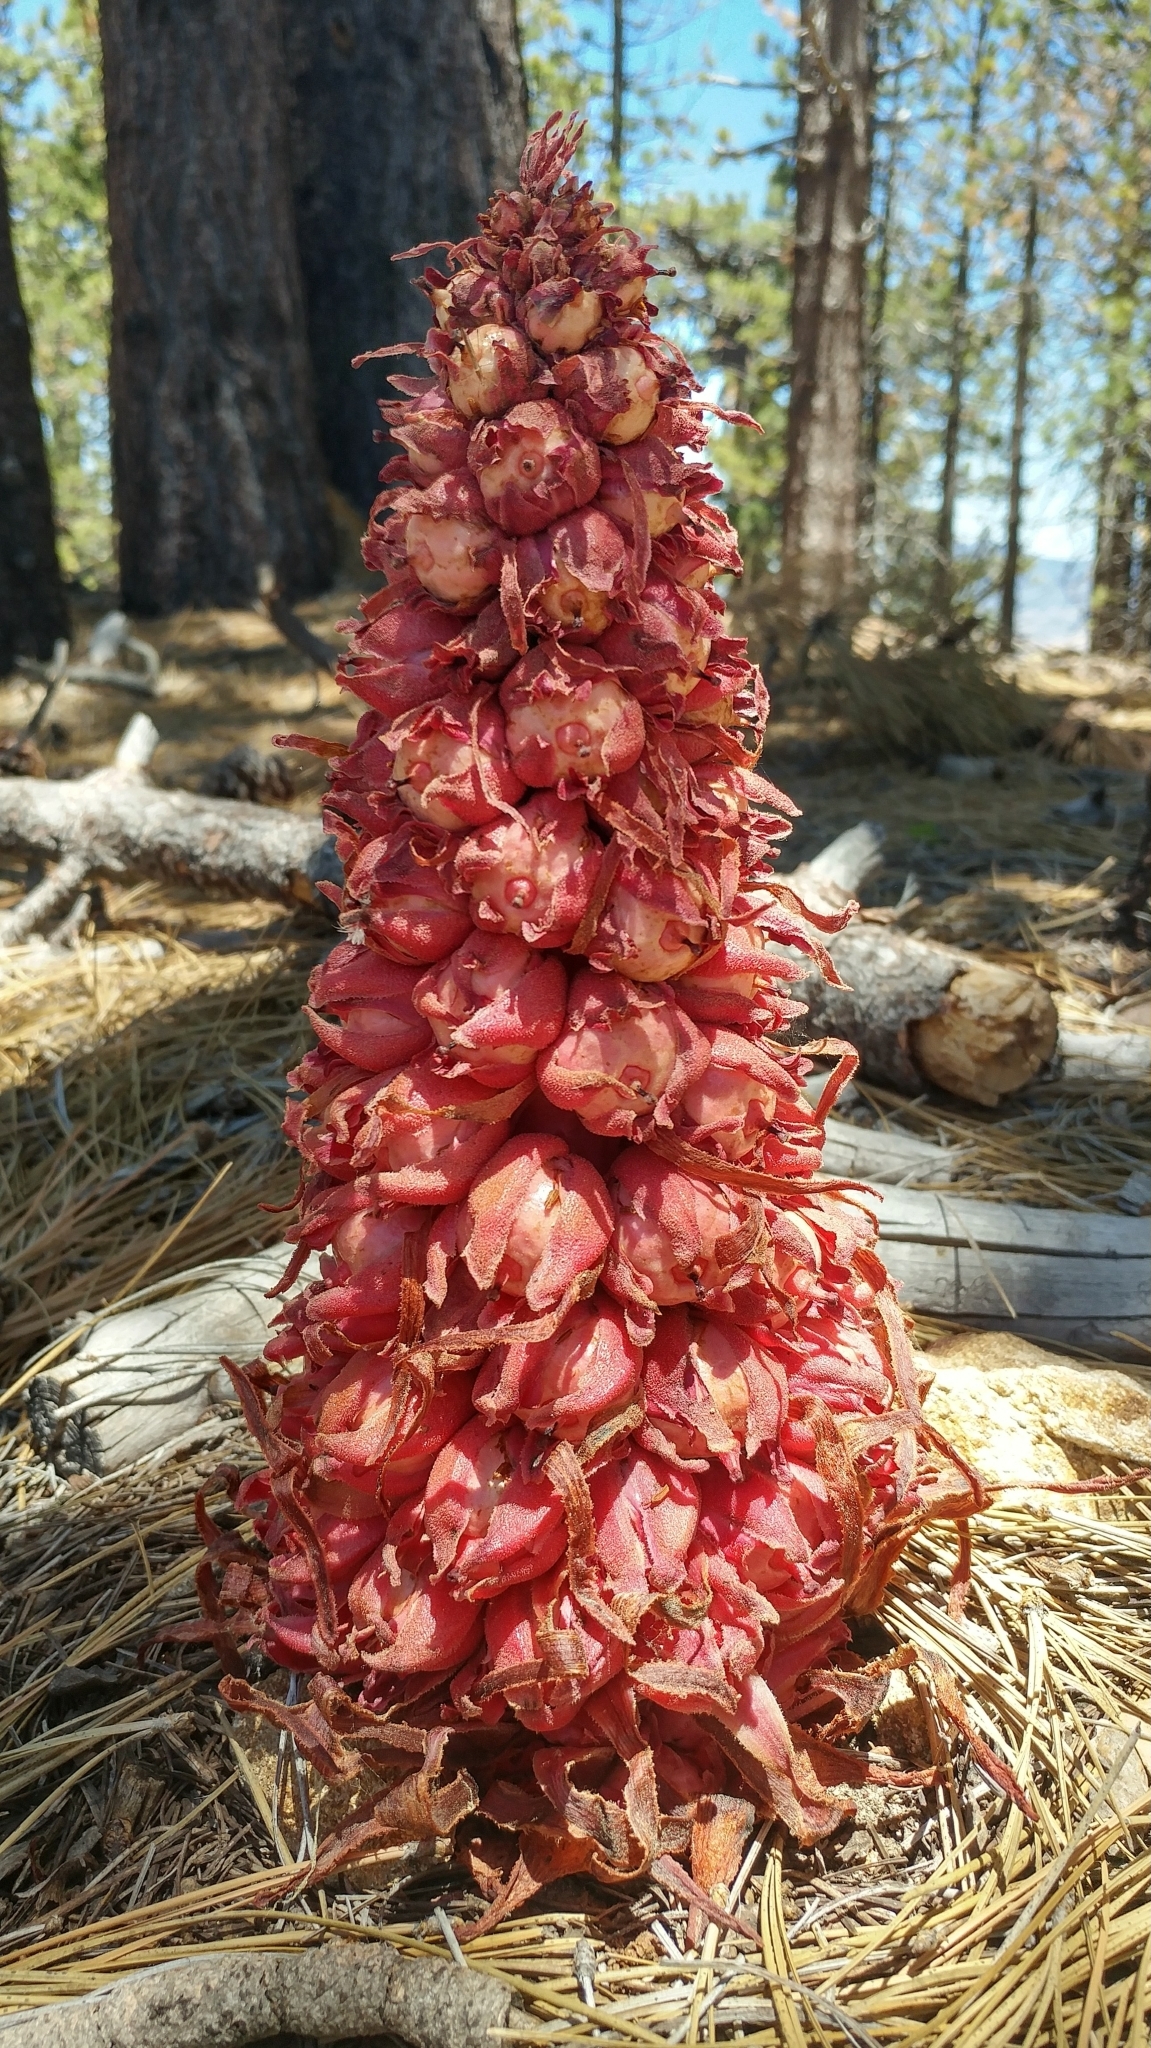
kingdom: Plantae
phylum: Tracheophyta
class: Magnoliopsida
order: Ericales
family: Ericaceae
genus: Sarcodes
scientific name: Sarcodes sanguinea
